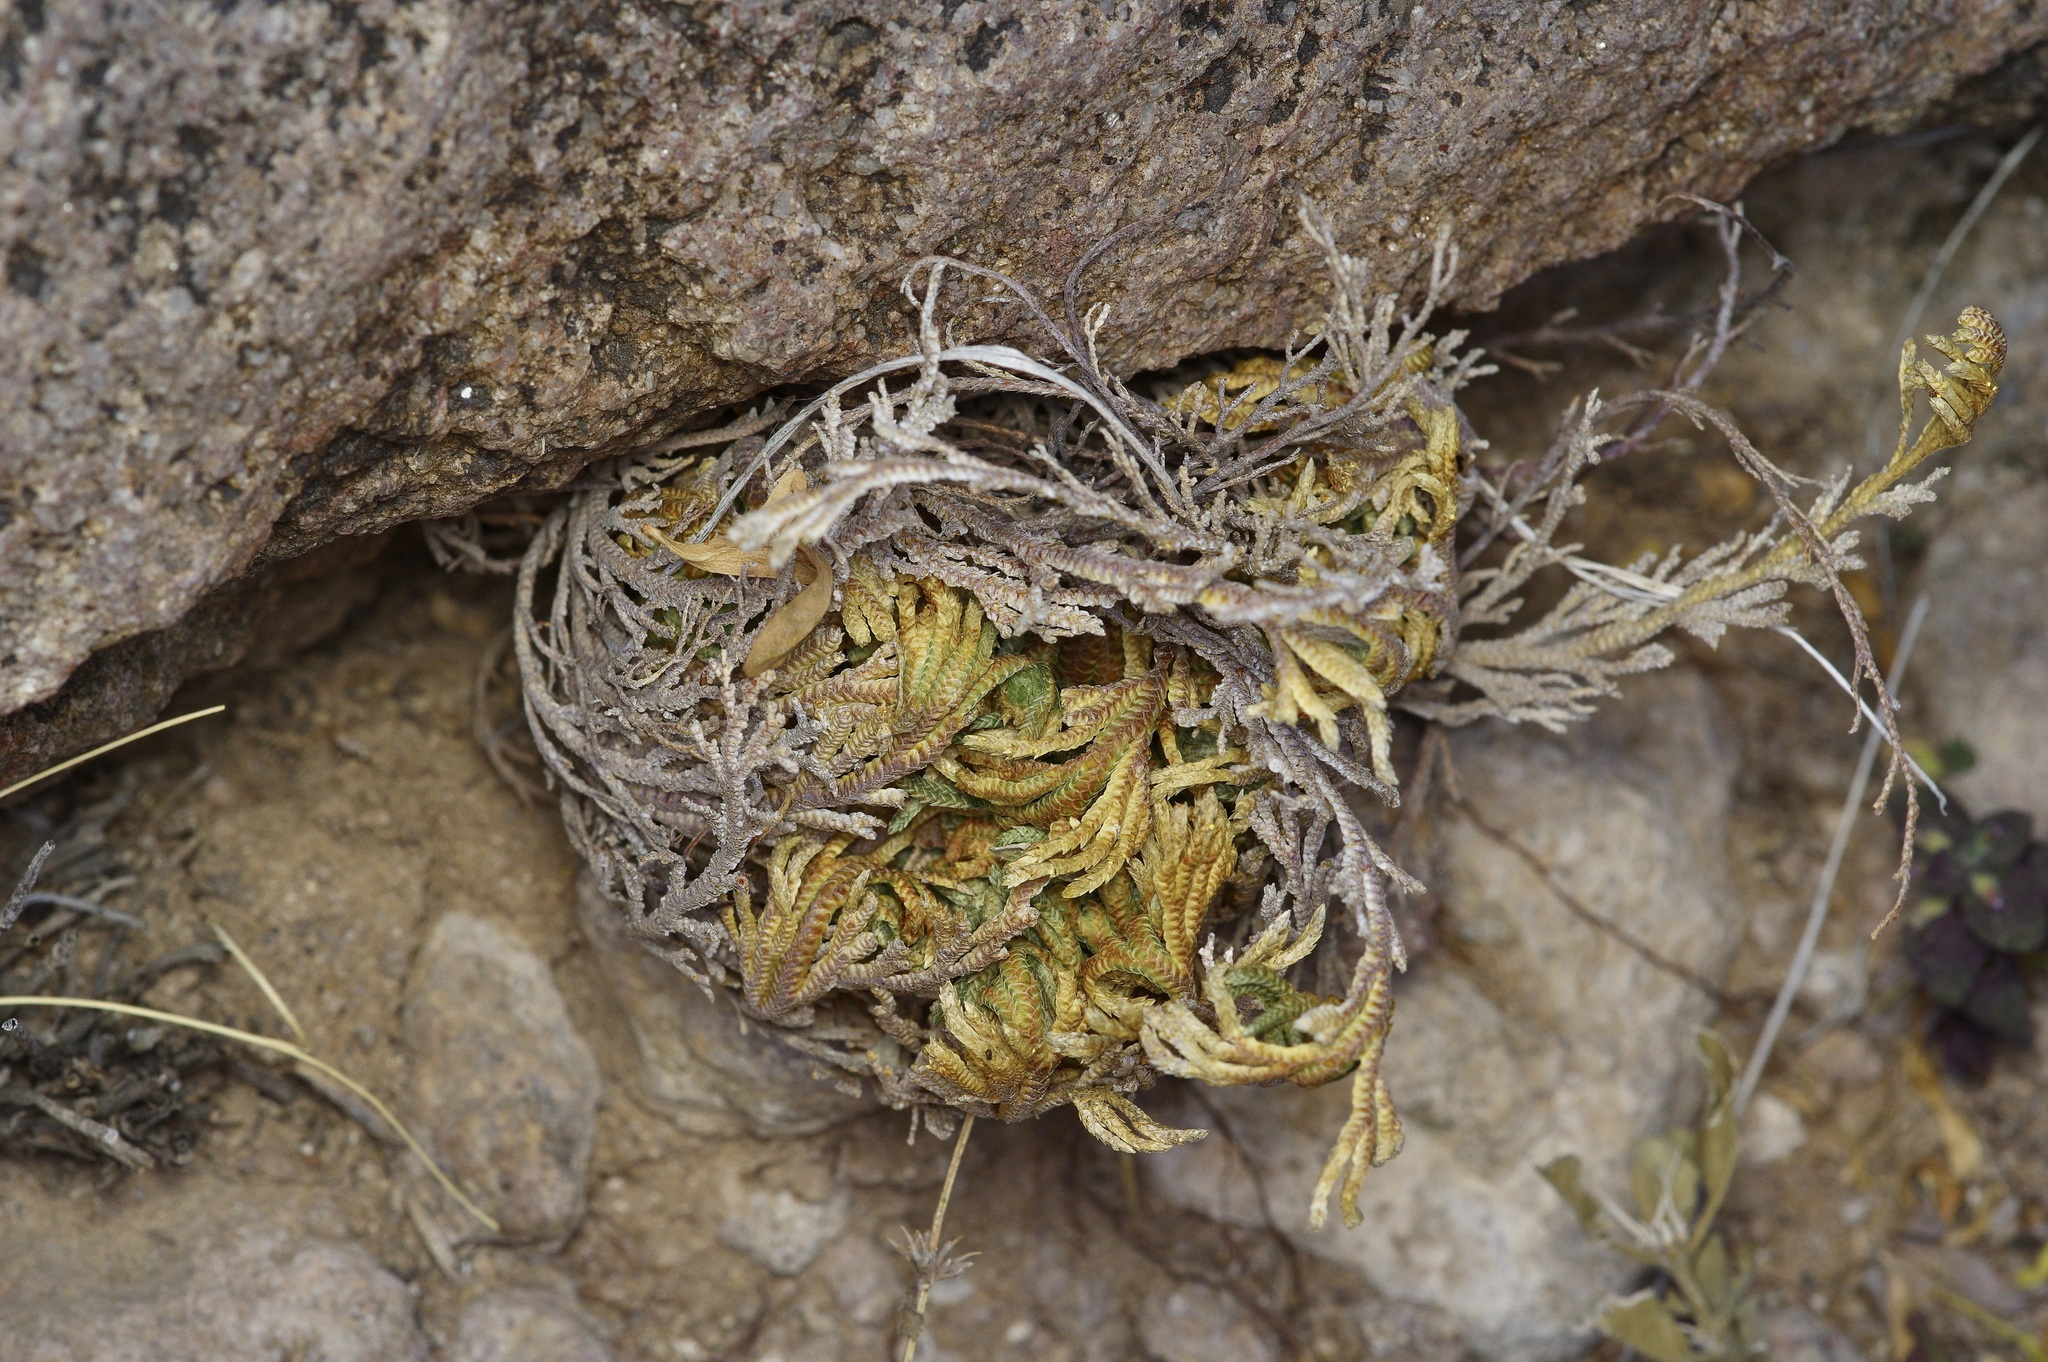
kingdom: Plantae
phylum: Tracheophyta
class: Lycopodiopsida
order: Selaginellales
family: Selaginellaceae
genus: Selaginella
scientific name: Selaginella lepidophylla
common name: Rose-of-jericho
